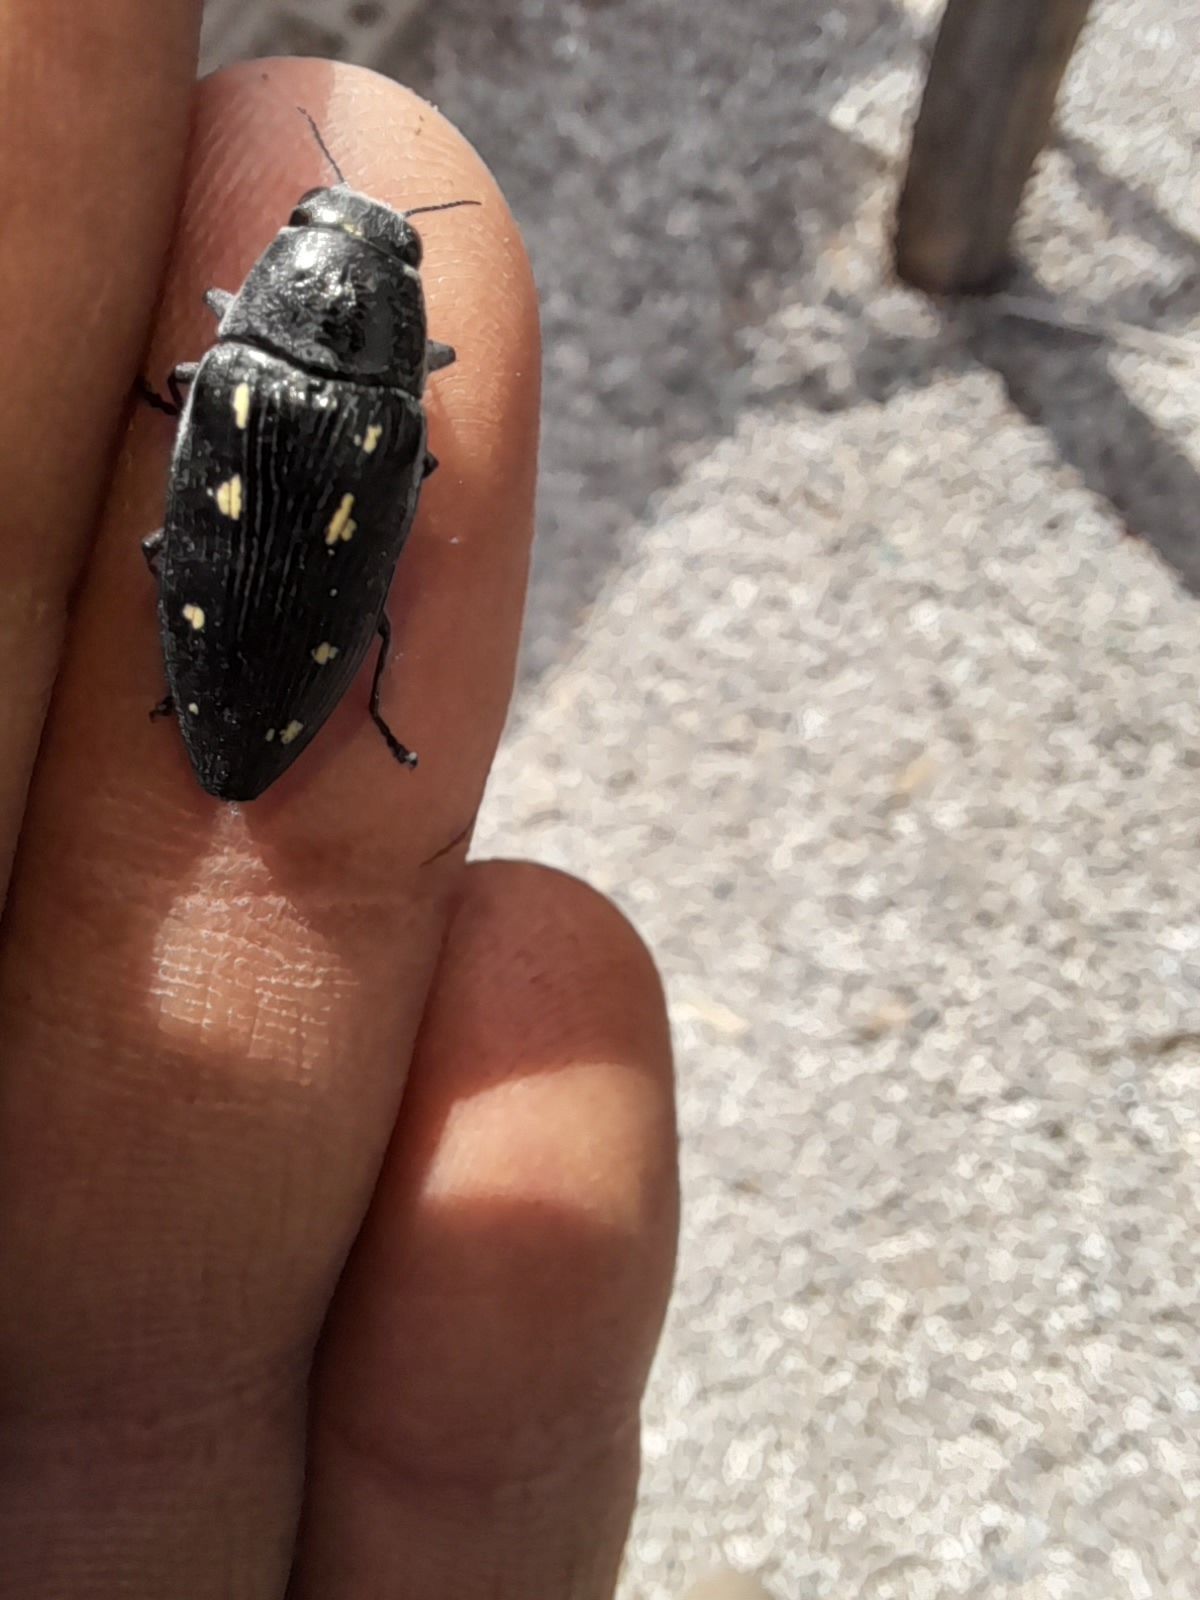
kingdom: Animalia
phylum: Arthropoda
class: Insecta
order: Coleoptera
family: Buprestidae
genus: Buprestis
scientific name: Buprestis novemmaculata
